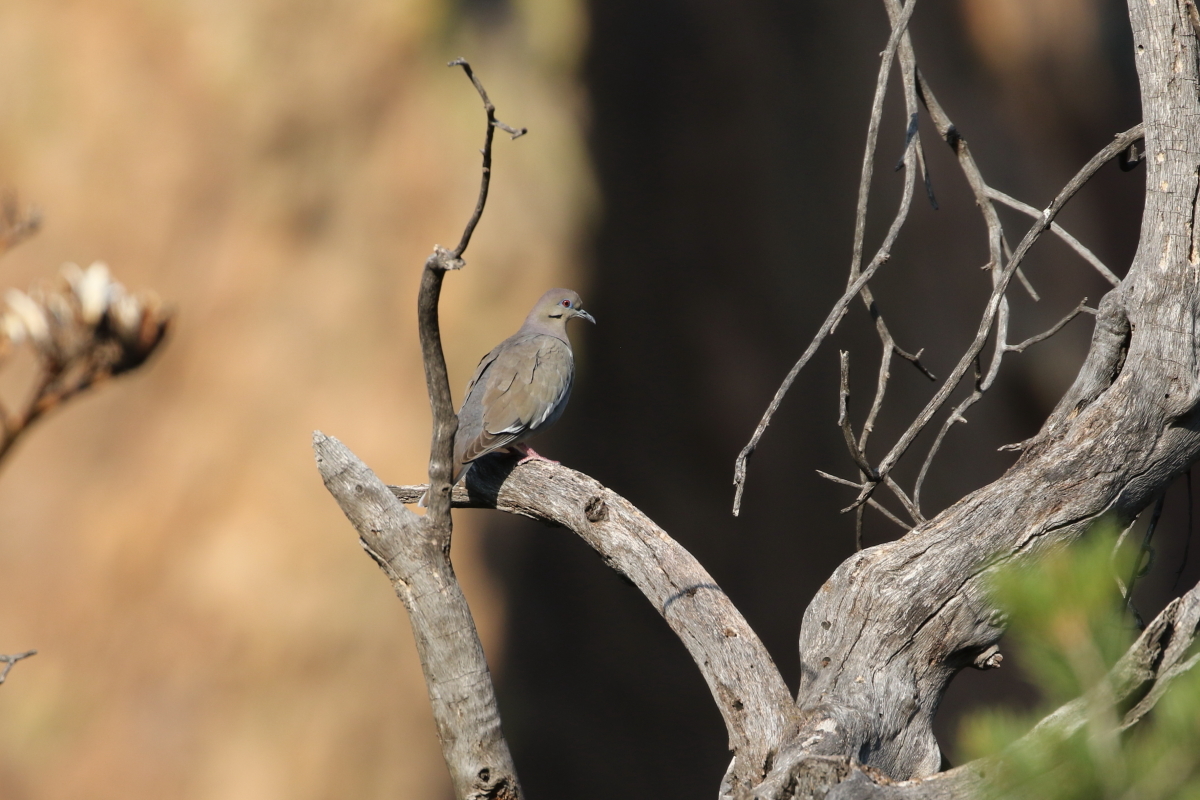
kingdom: Animalia
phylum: Chordata
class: Aves
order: Columbiformes
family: Columbidae
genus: Zenaida
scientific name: Zenaida asiatica
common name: White-winged dove
